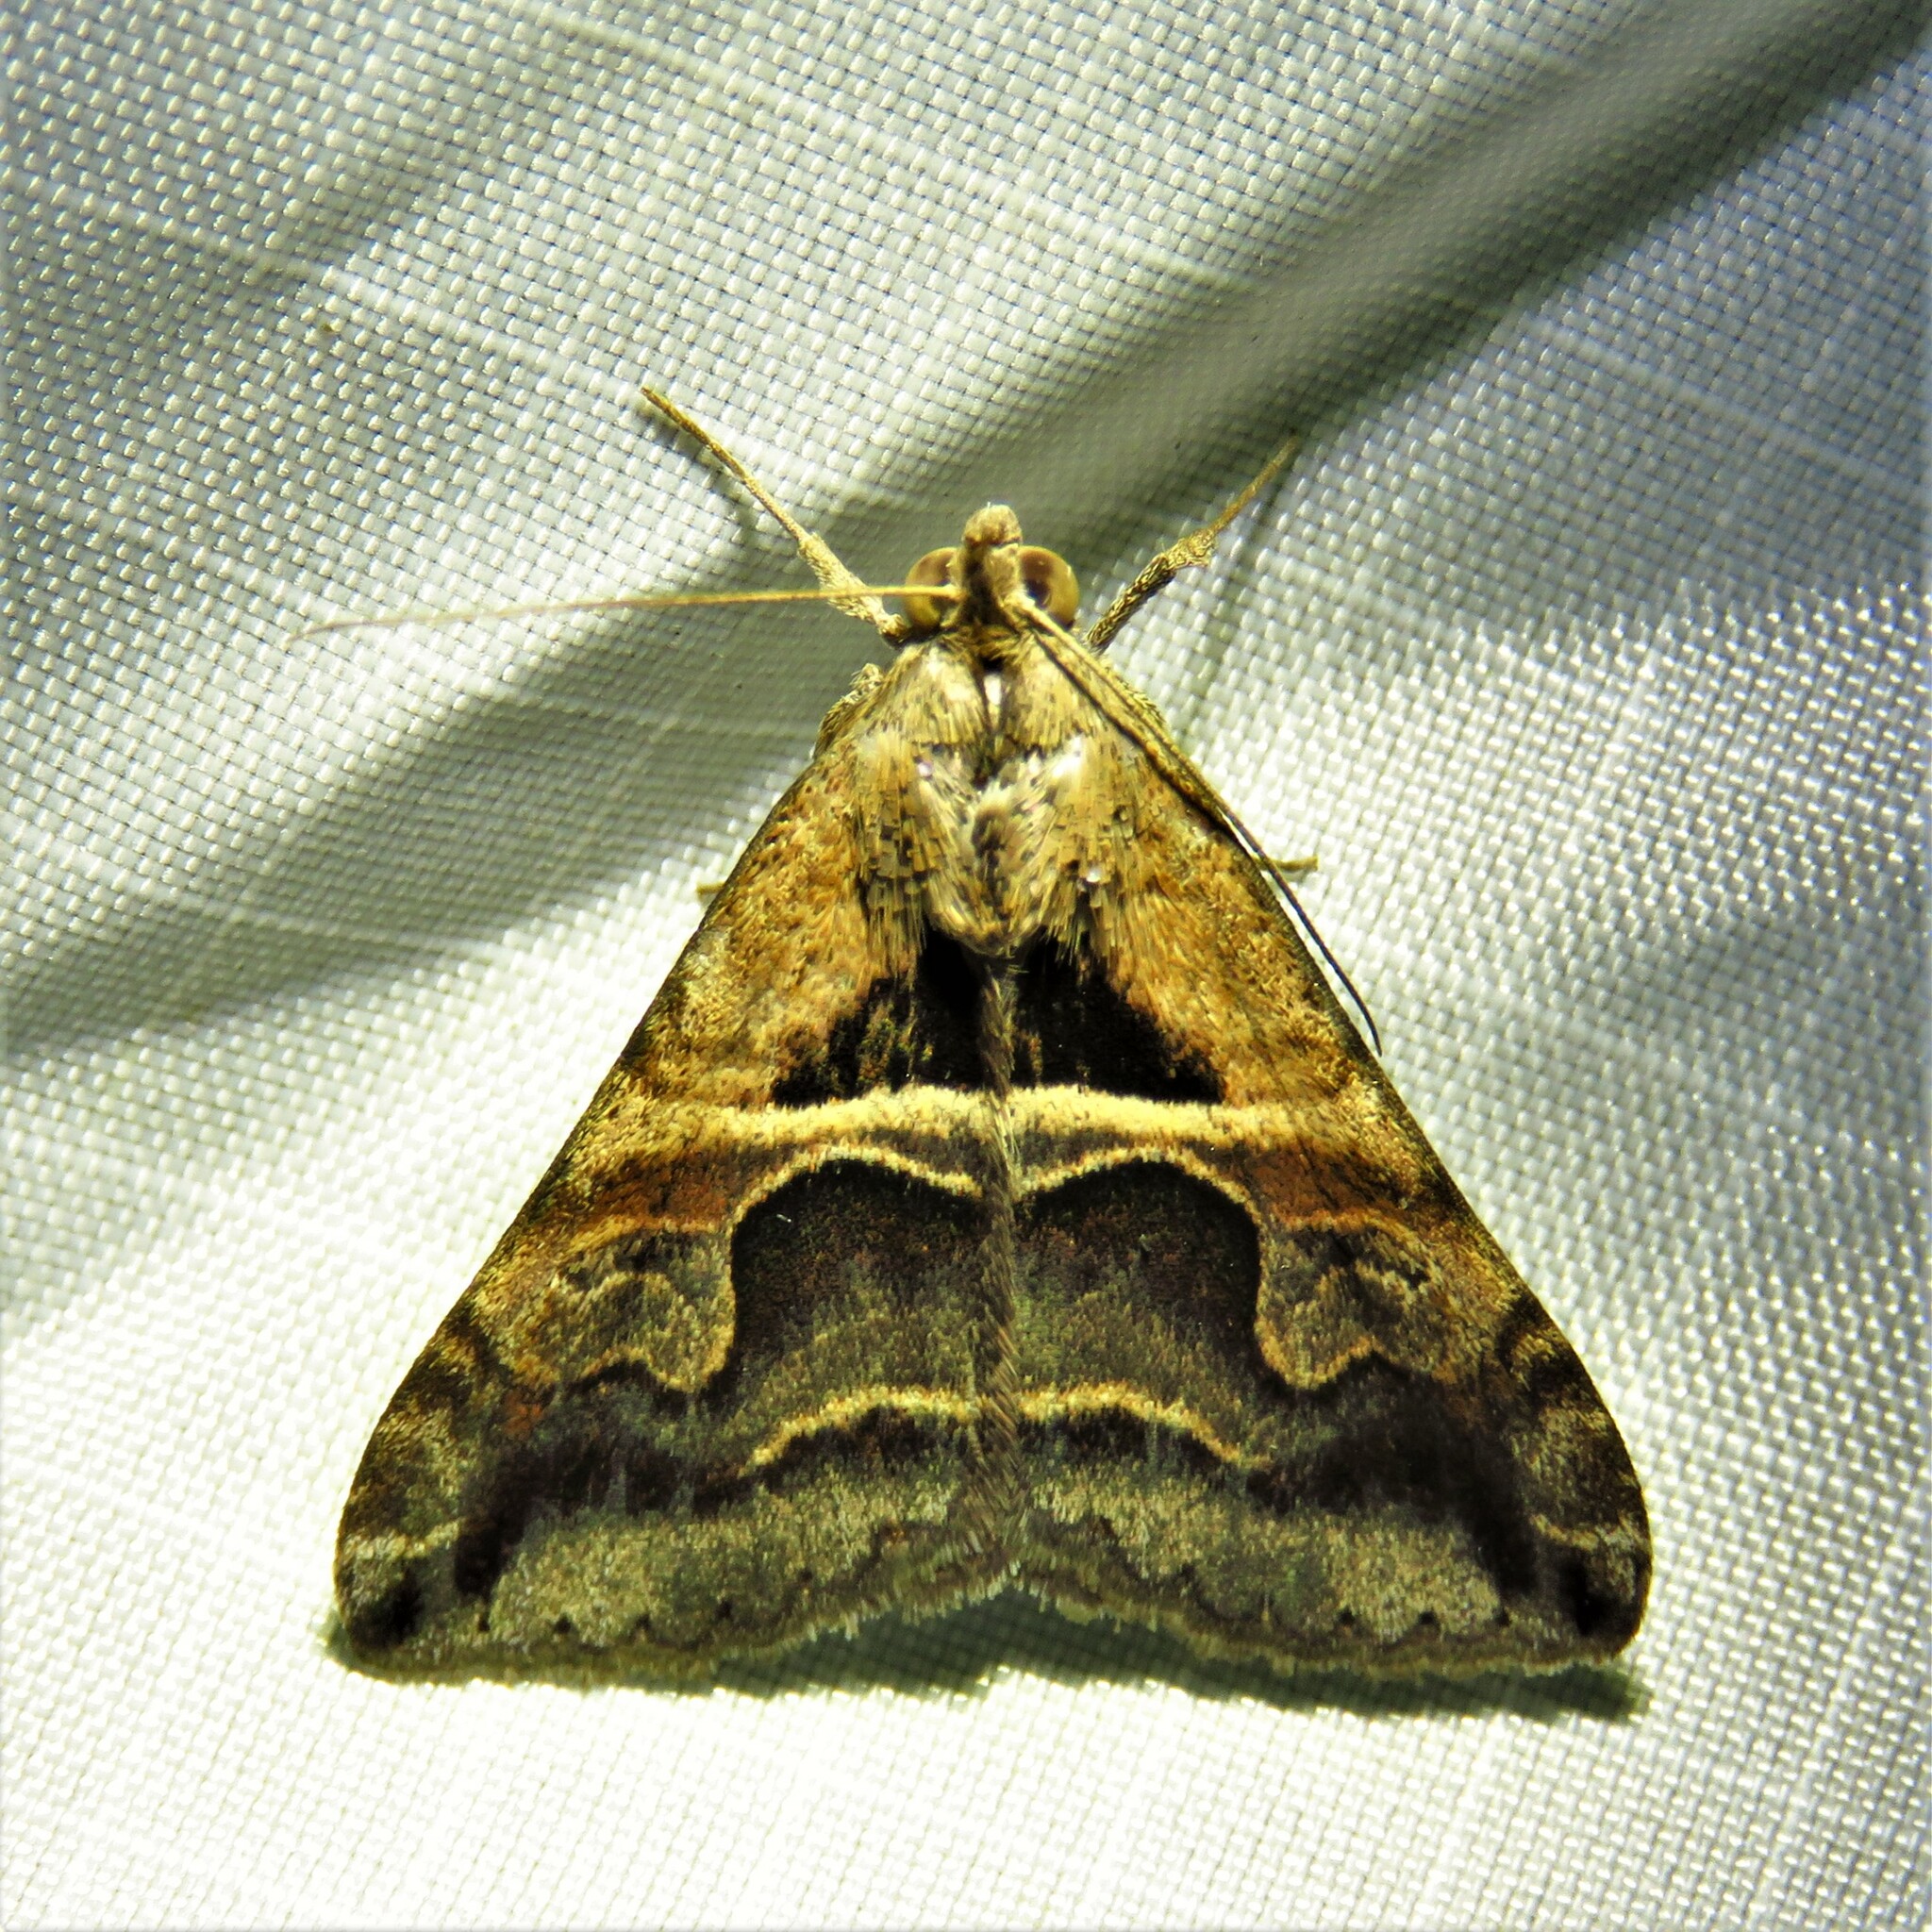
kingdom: Animalia
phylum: Arthropoda
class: Insecta
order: Lepidoptera
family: Erebidae
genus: Melipotis
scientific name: Melipotis cellaris
